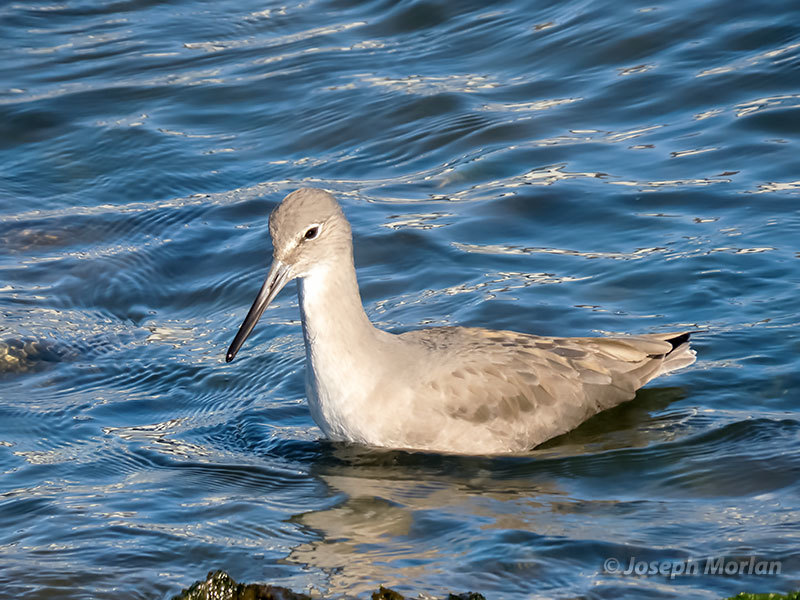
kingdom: Animalia
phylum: Chordata
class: Aves
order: Charadriiformes
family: Scolopacidae
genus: Tringa
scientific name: Tringa semipalmata
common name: Willet
